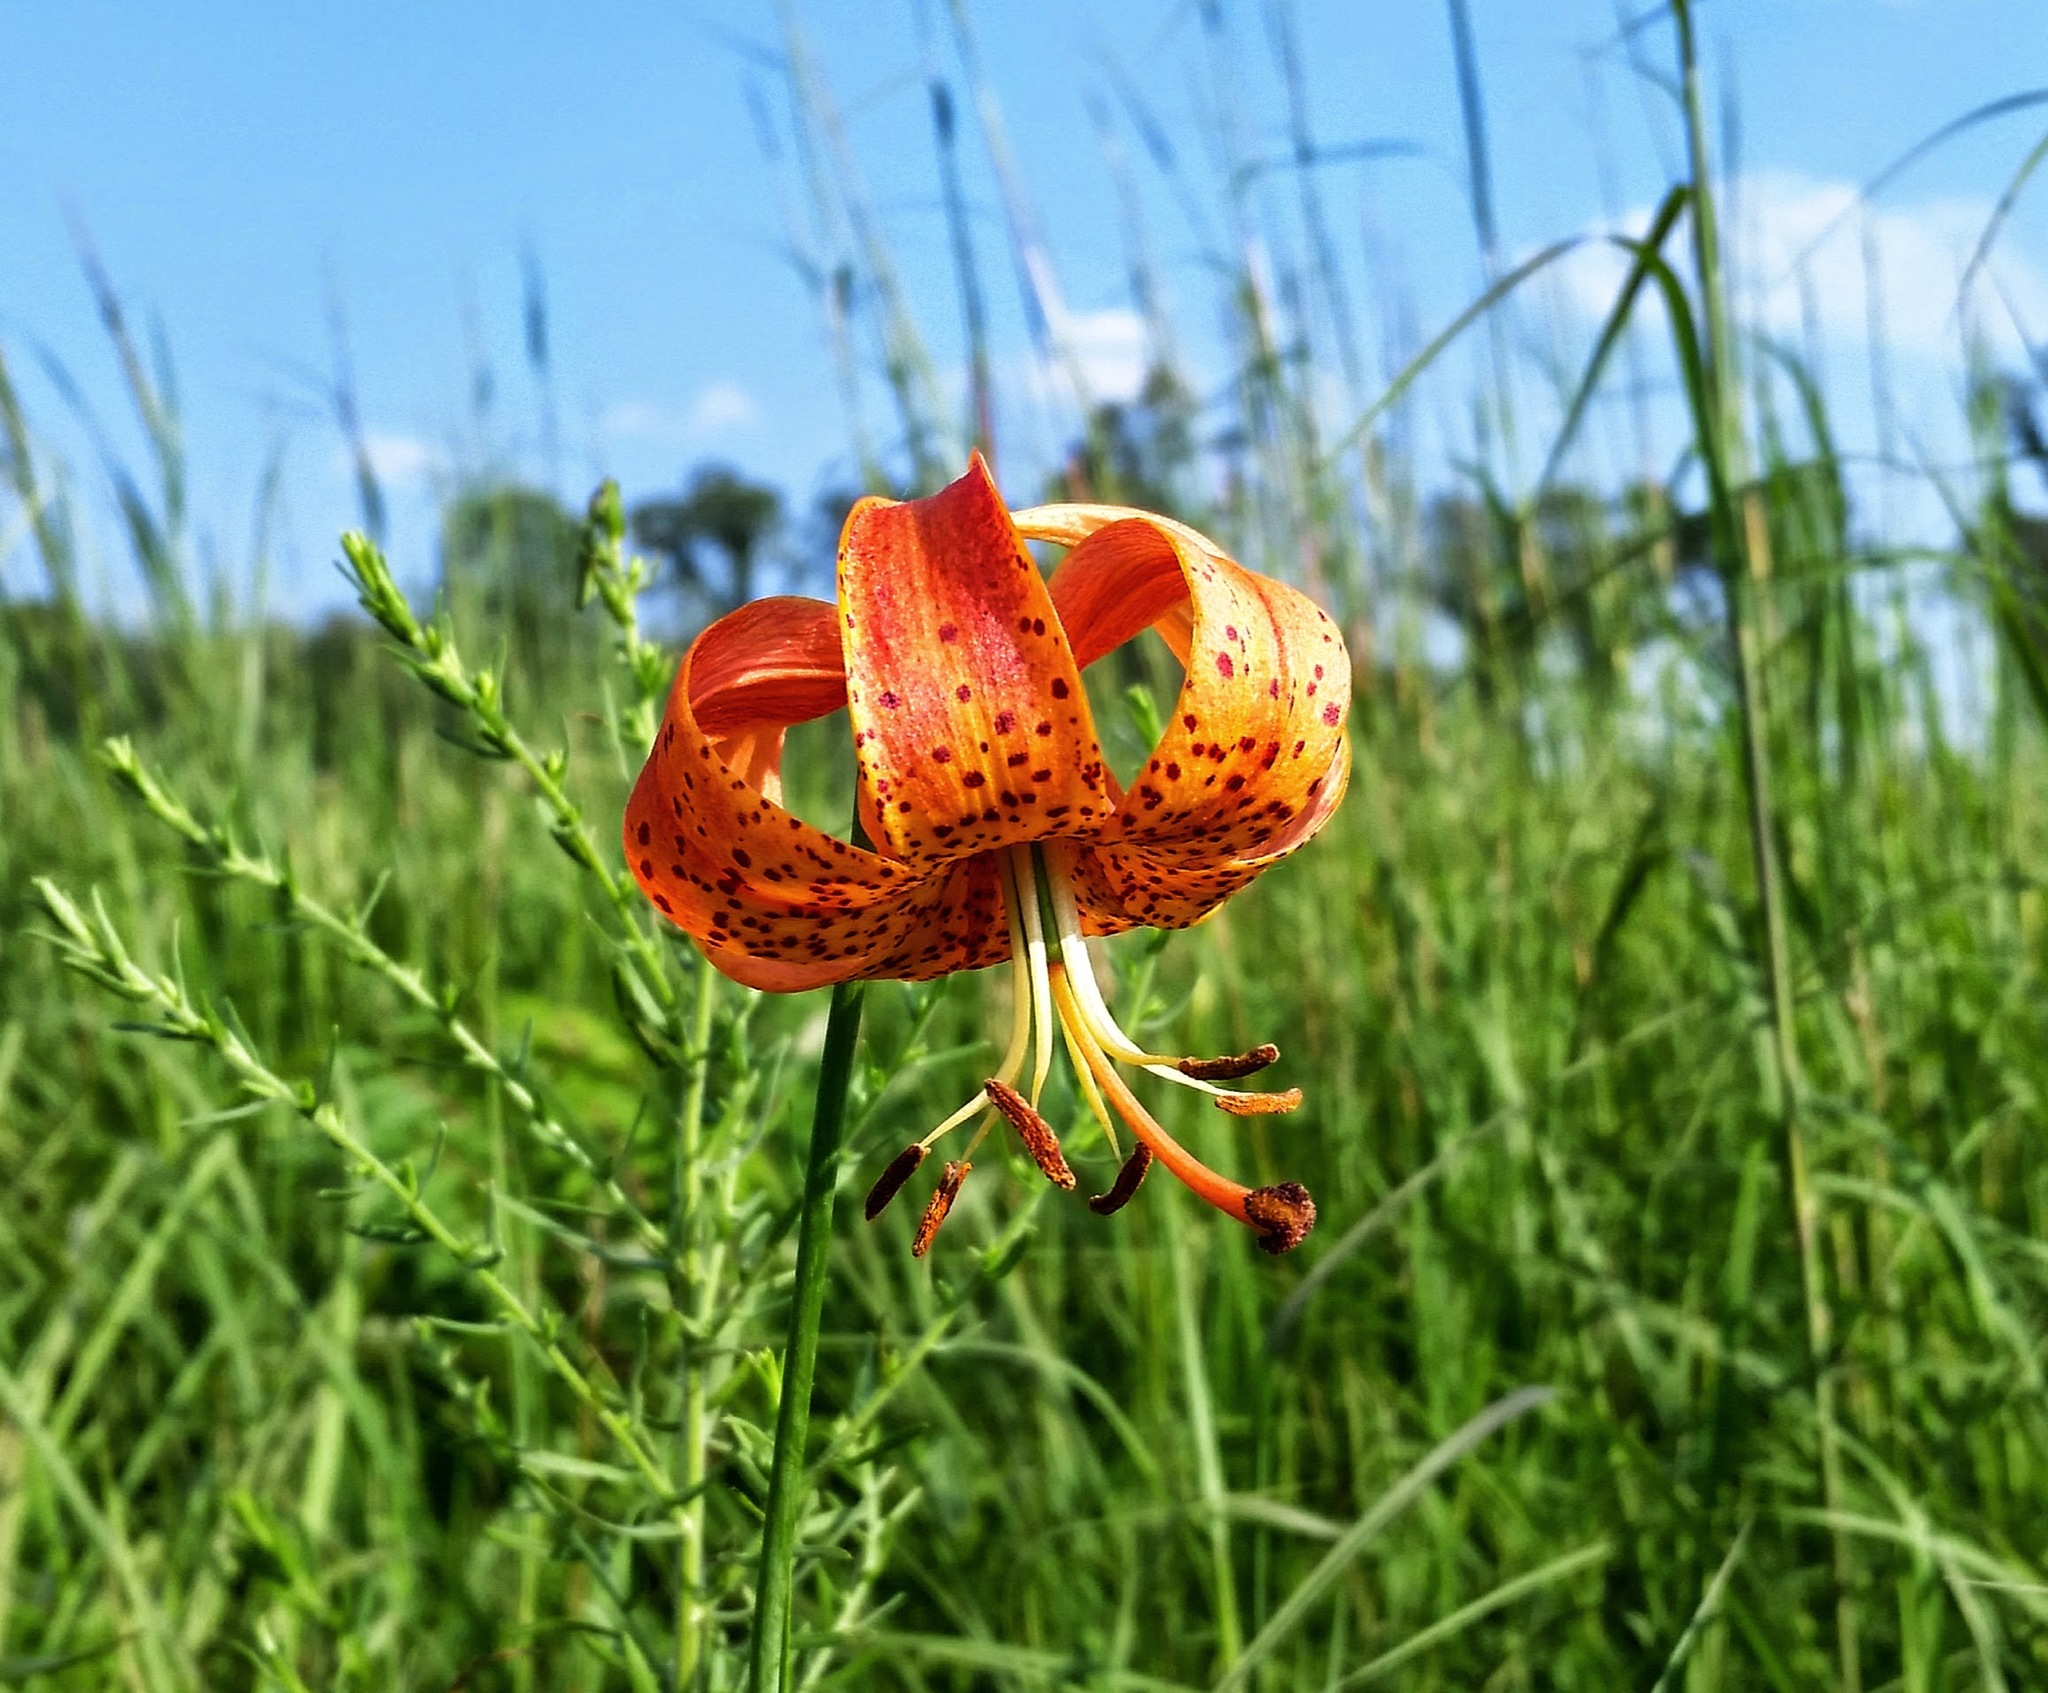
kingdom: Plantae
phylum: Tracheophyta
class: Liliopsida
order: Liliales
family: Liliaceae
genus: Lilium
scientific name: Lilium michiganense
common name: Michigan lily
